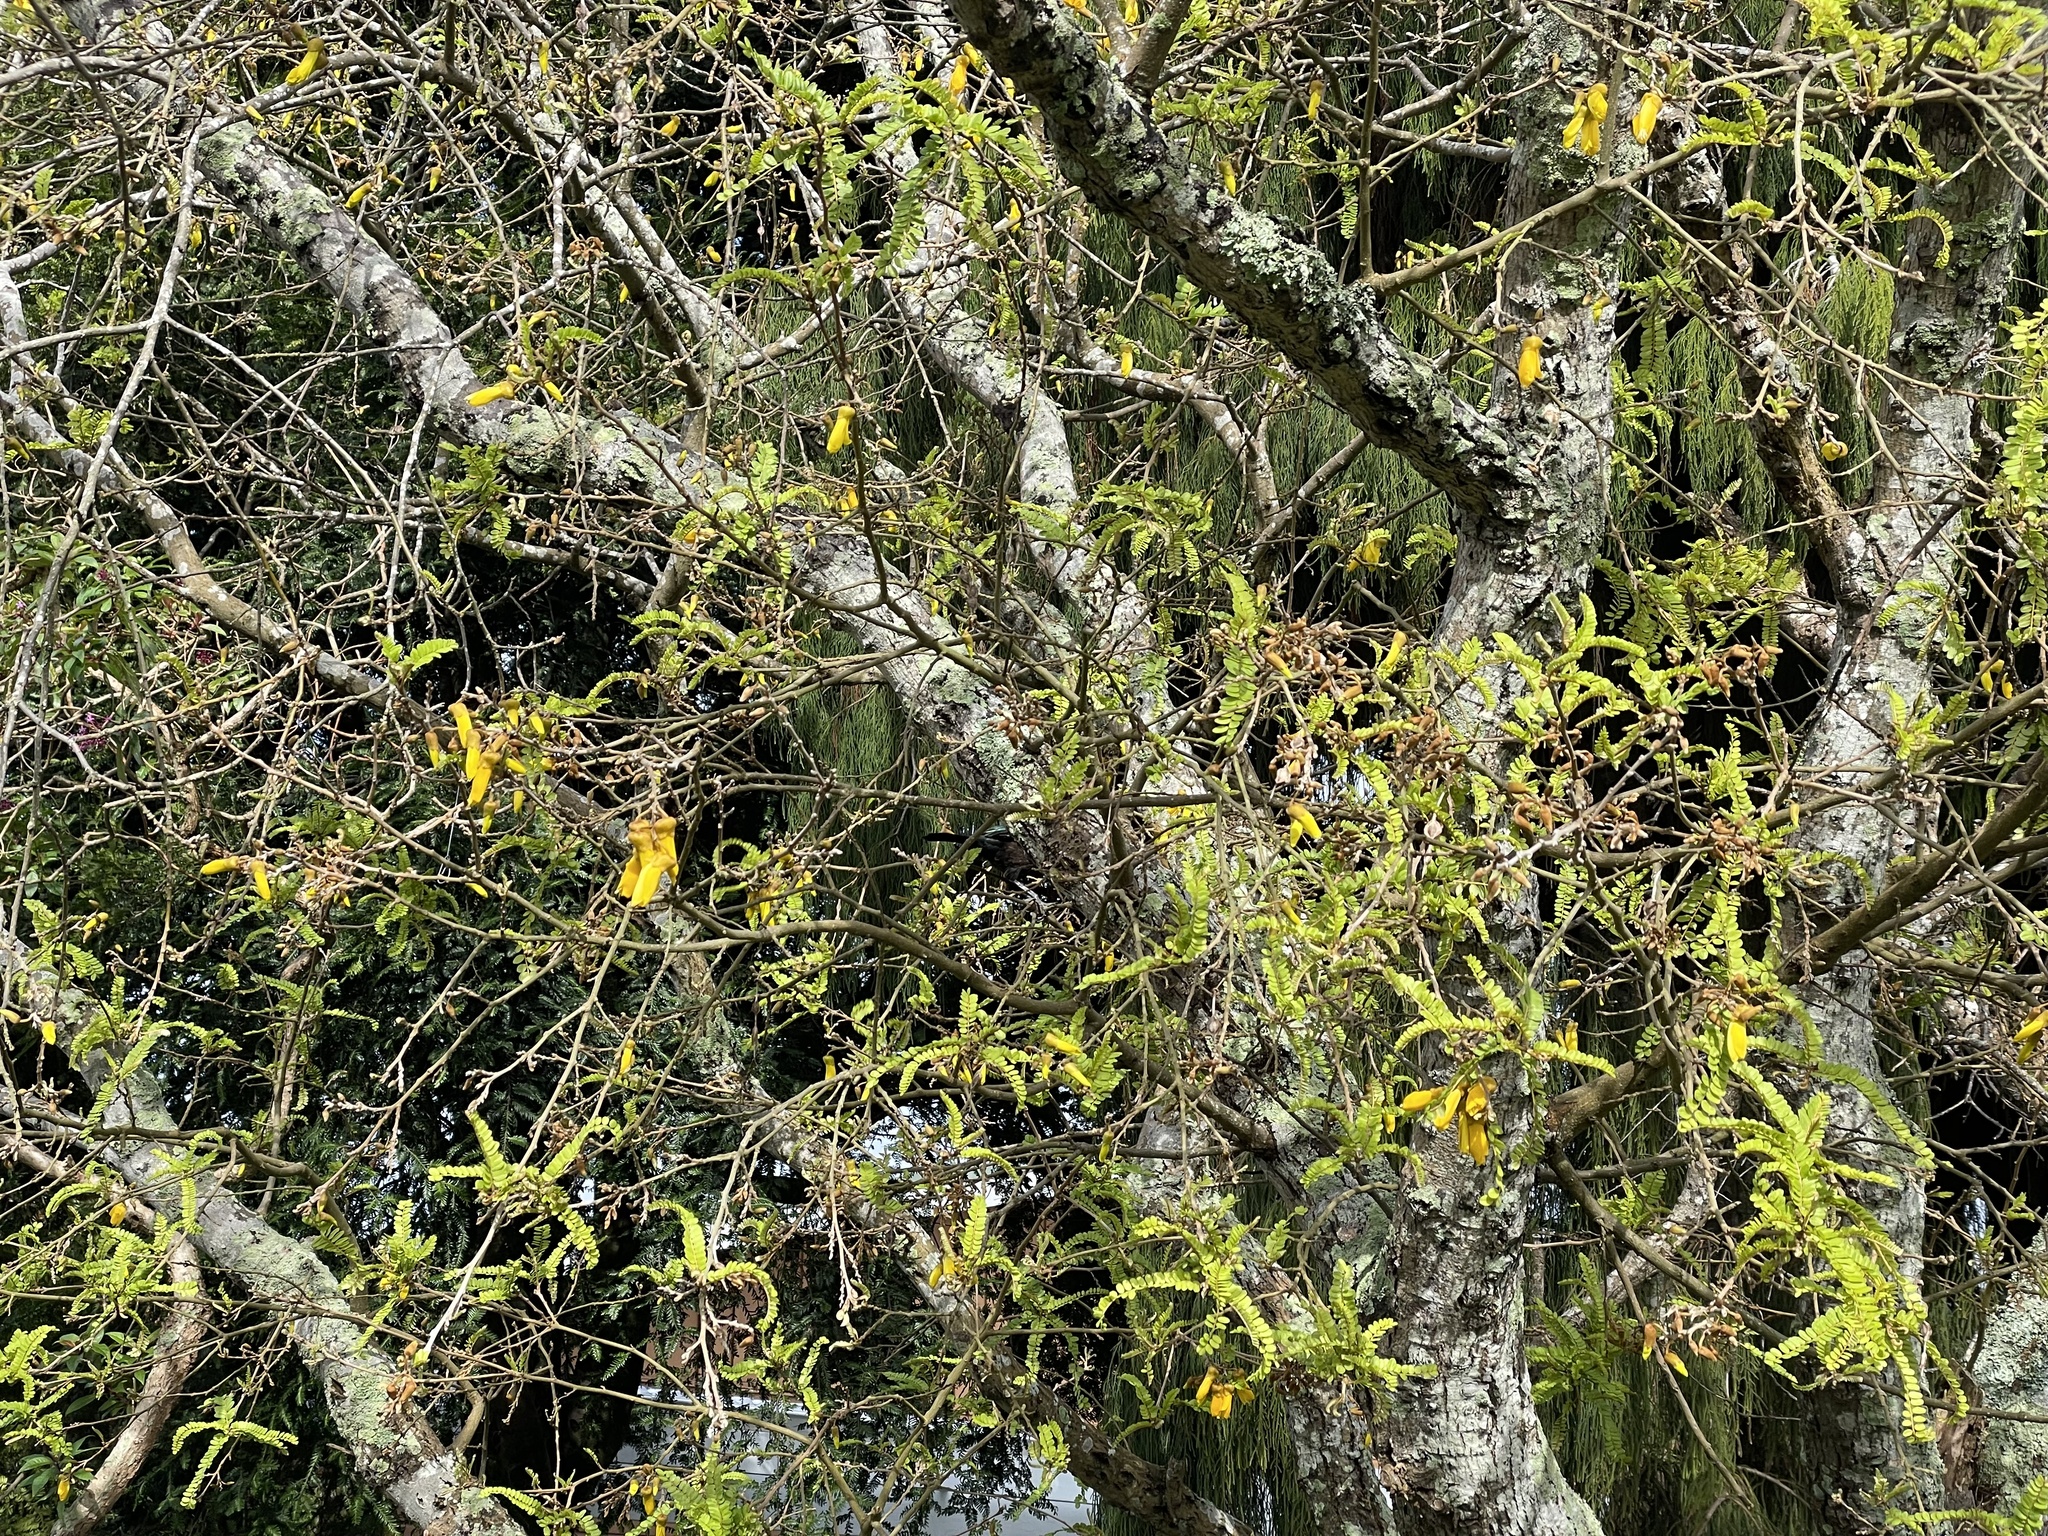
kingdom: Animalia
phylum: Chordata
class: Aves
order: Passeriformes
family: Meliphagidae
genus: Prosthemadera
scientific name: Prosthemadera novaeseelandiae
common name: Tui
